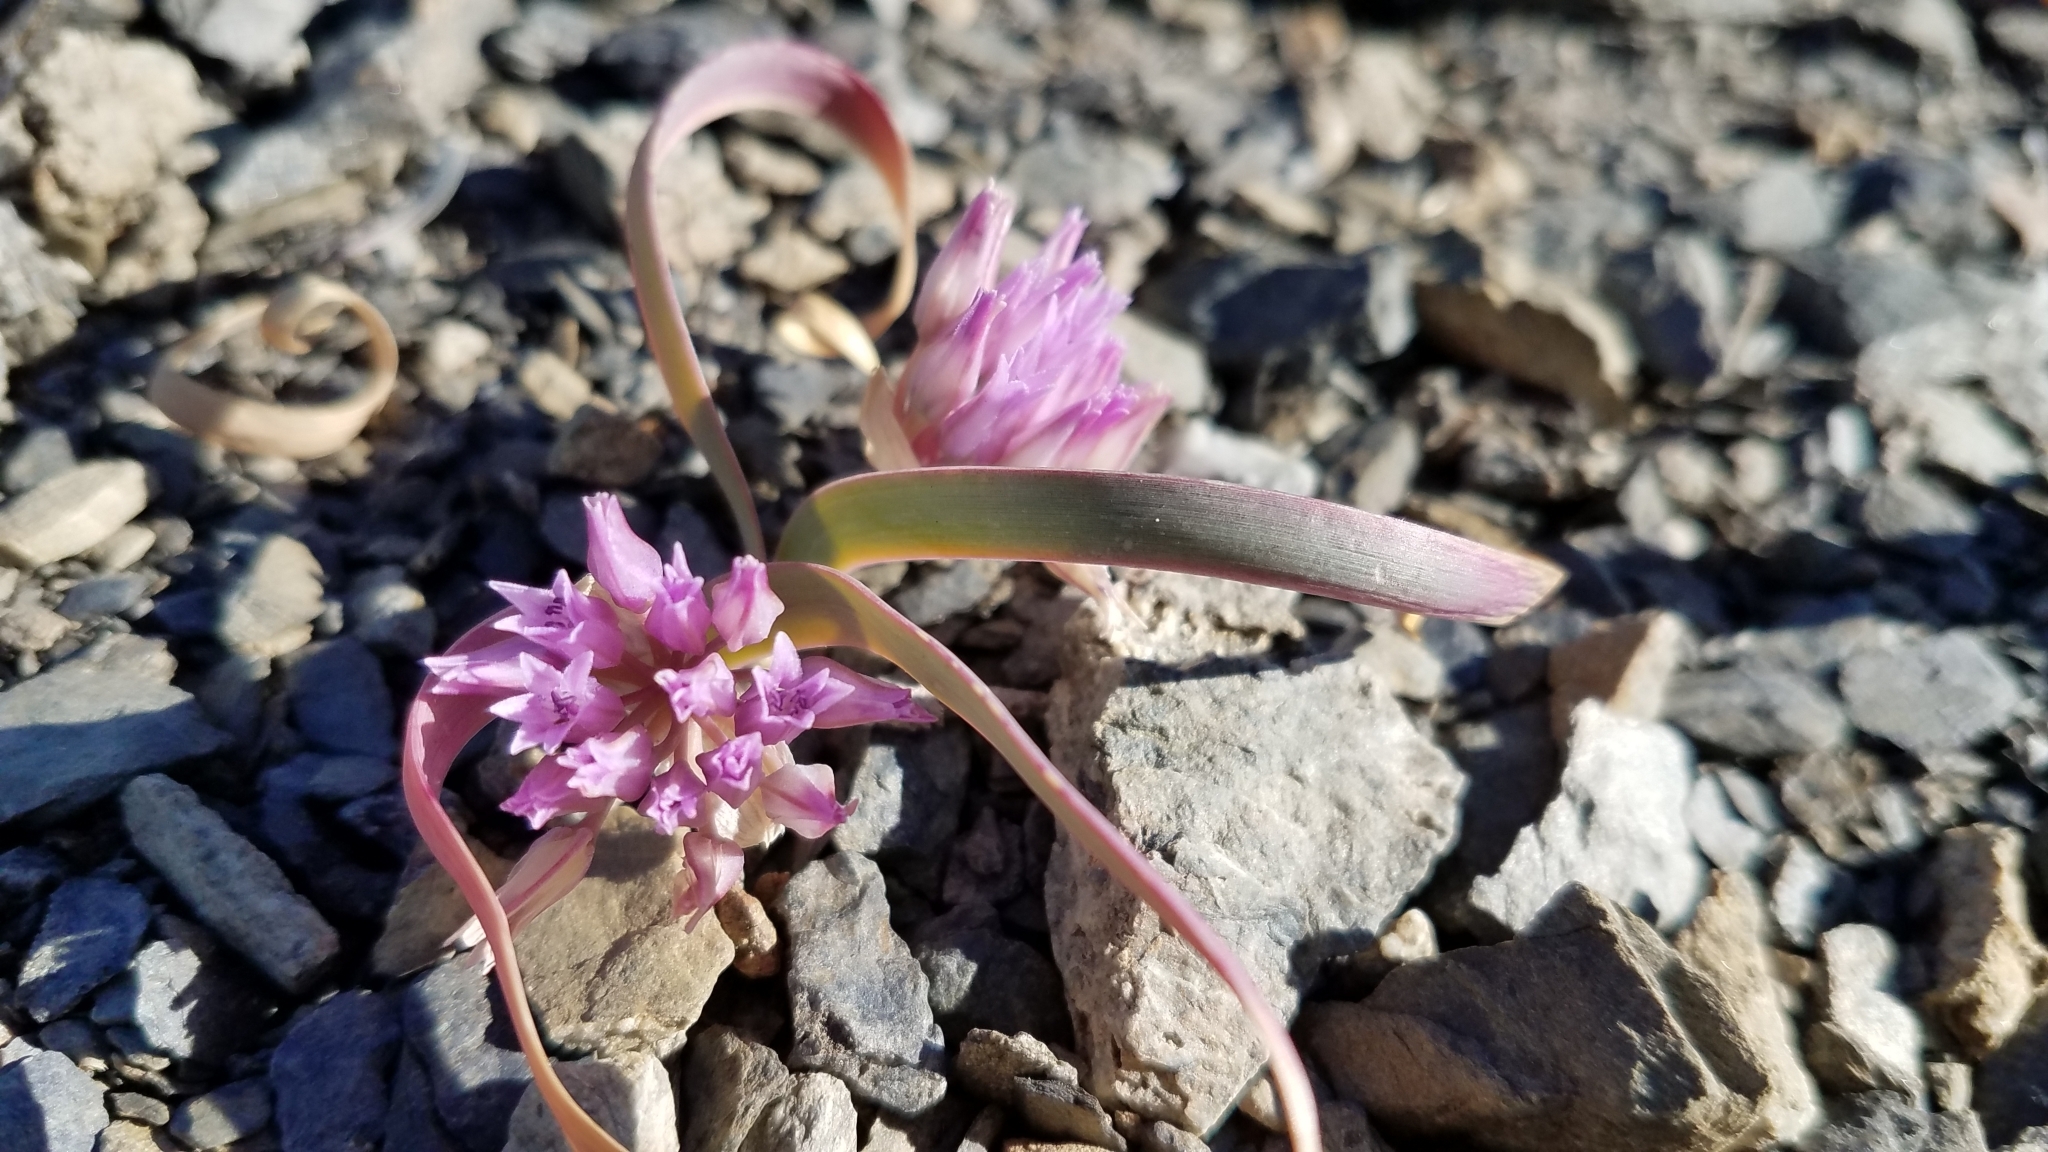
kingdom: Plantae
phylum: Tracheophyta
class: Liliopsida
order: Asparagales
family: Amaryllidaceae
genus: Allium
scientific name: Allium falcifolium
